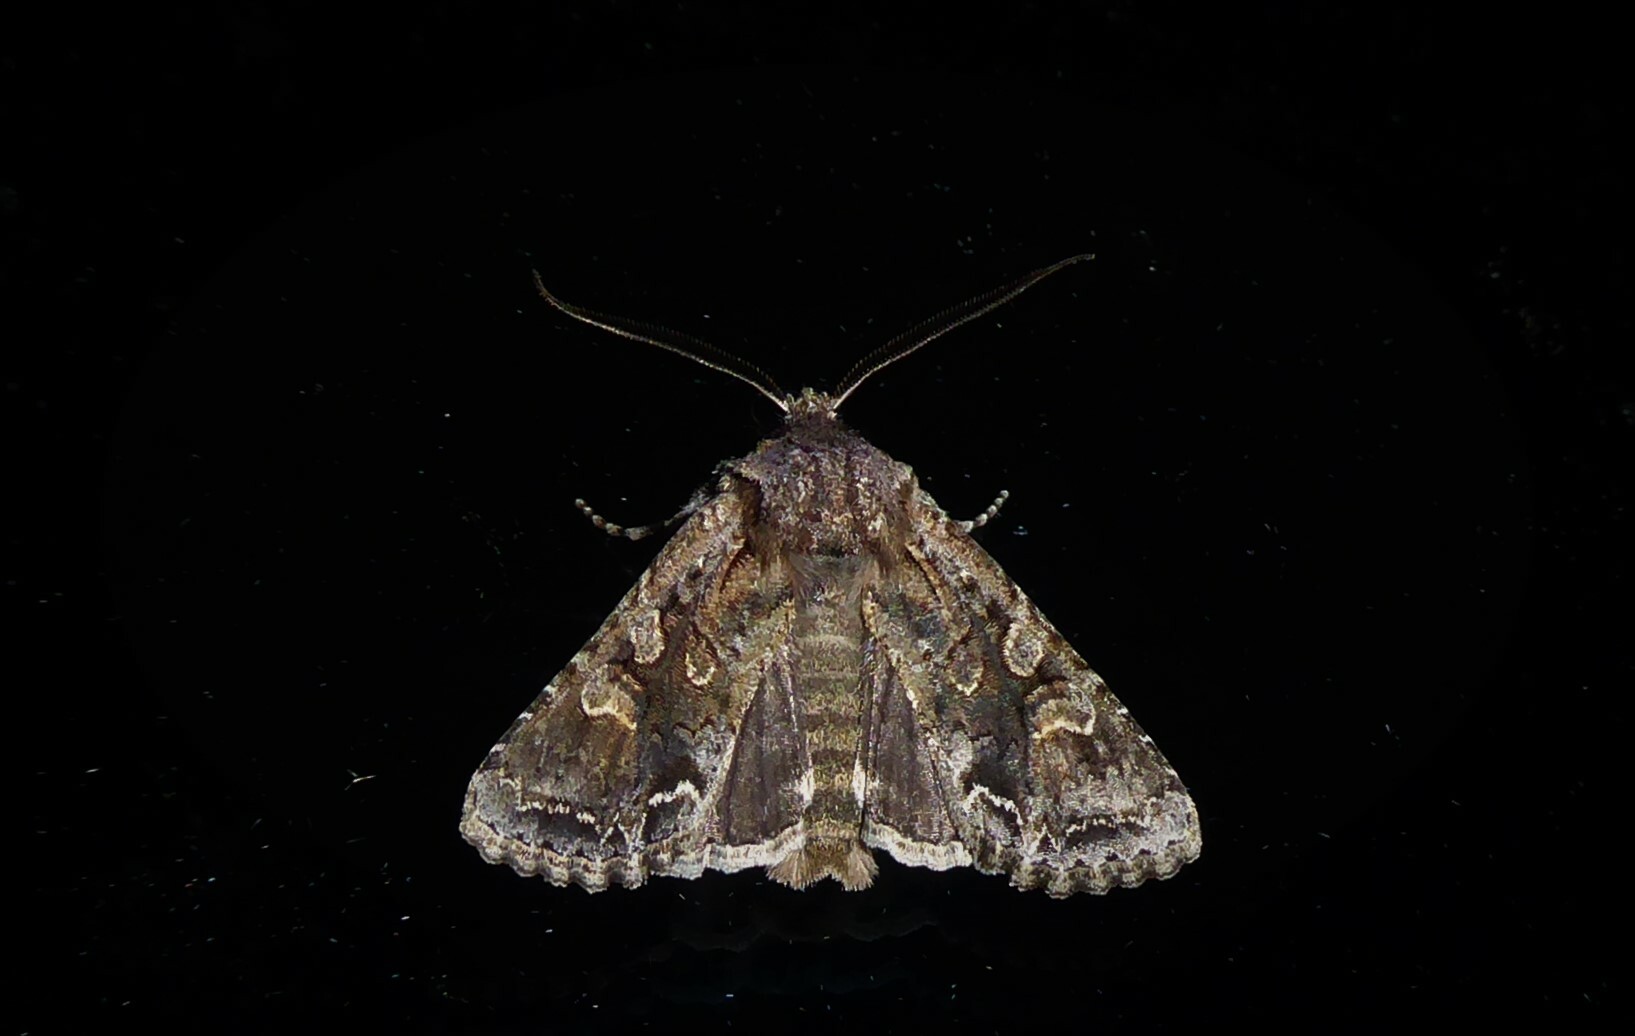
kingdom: Animalia
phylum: Arthropoda
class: Insecta
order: Lepidoptera
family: Noctuidae
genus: Ichneutica
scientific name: Ichneutica skelloni
